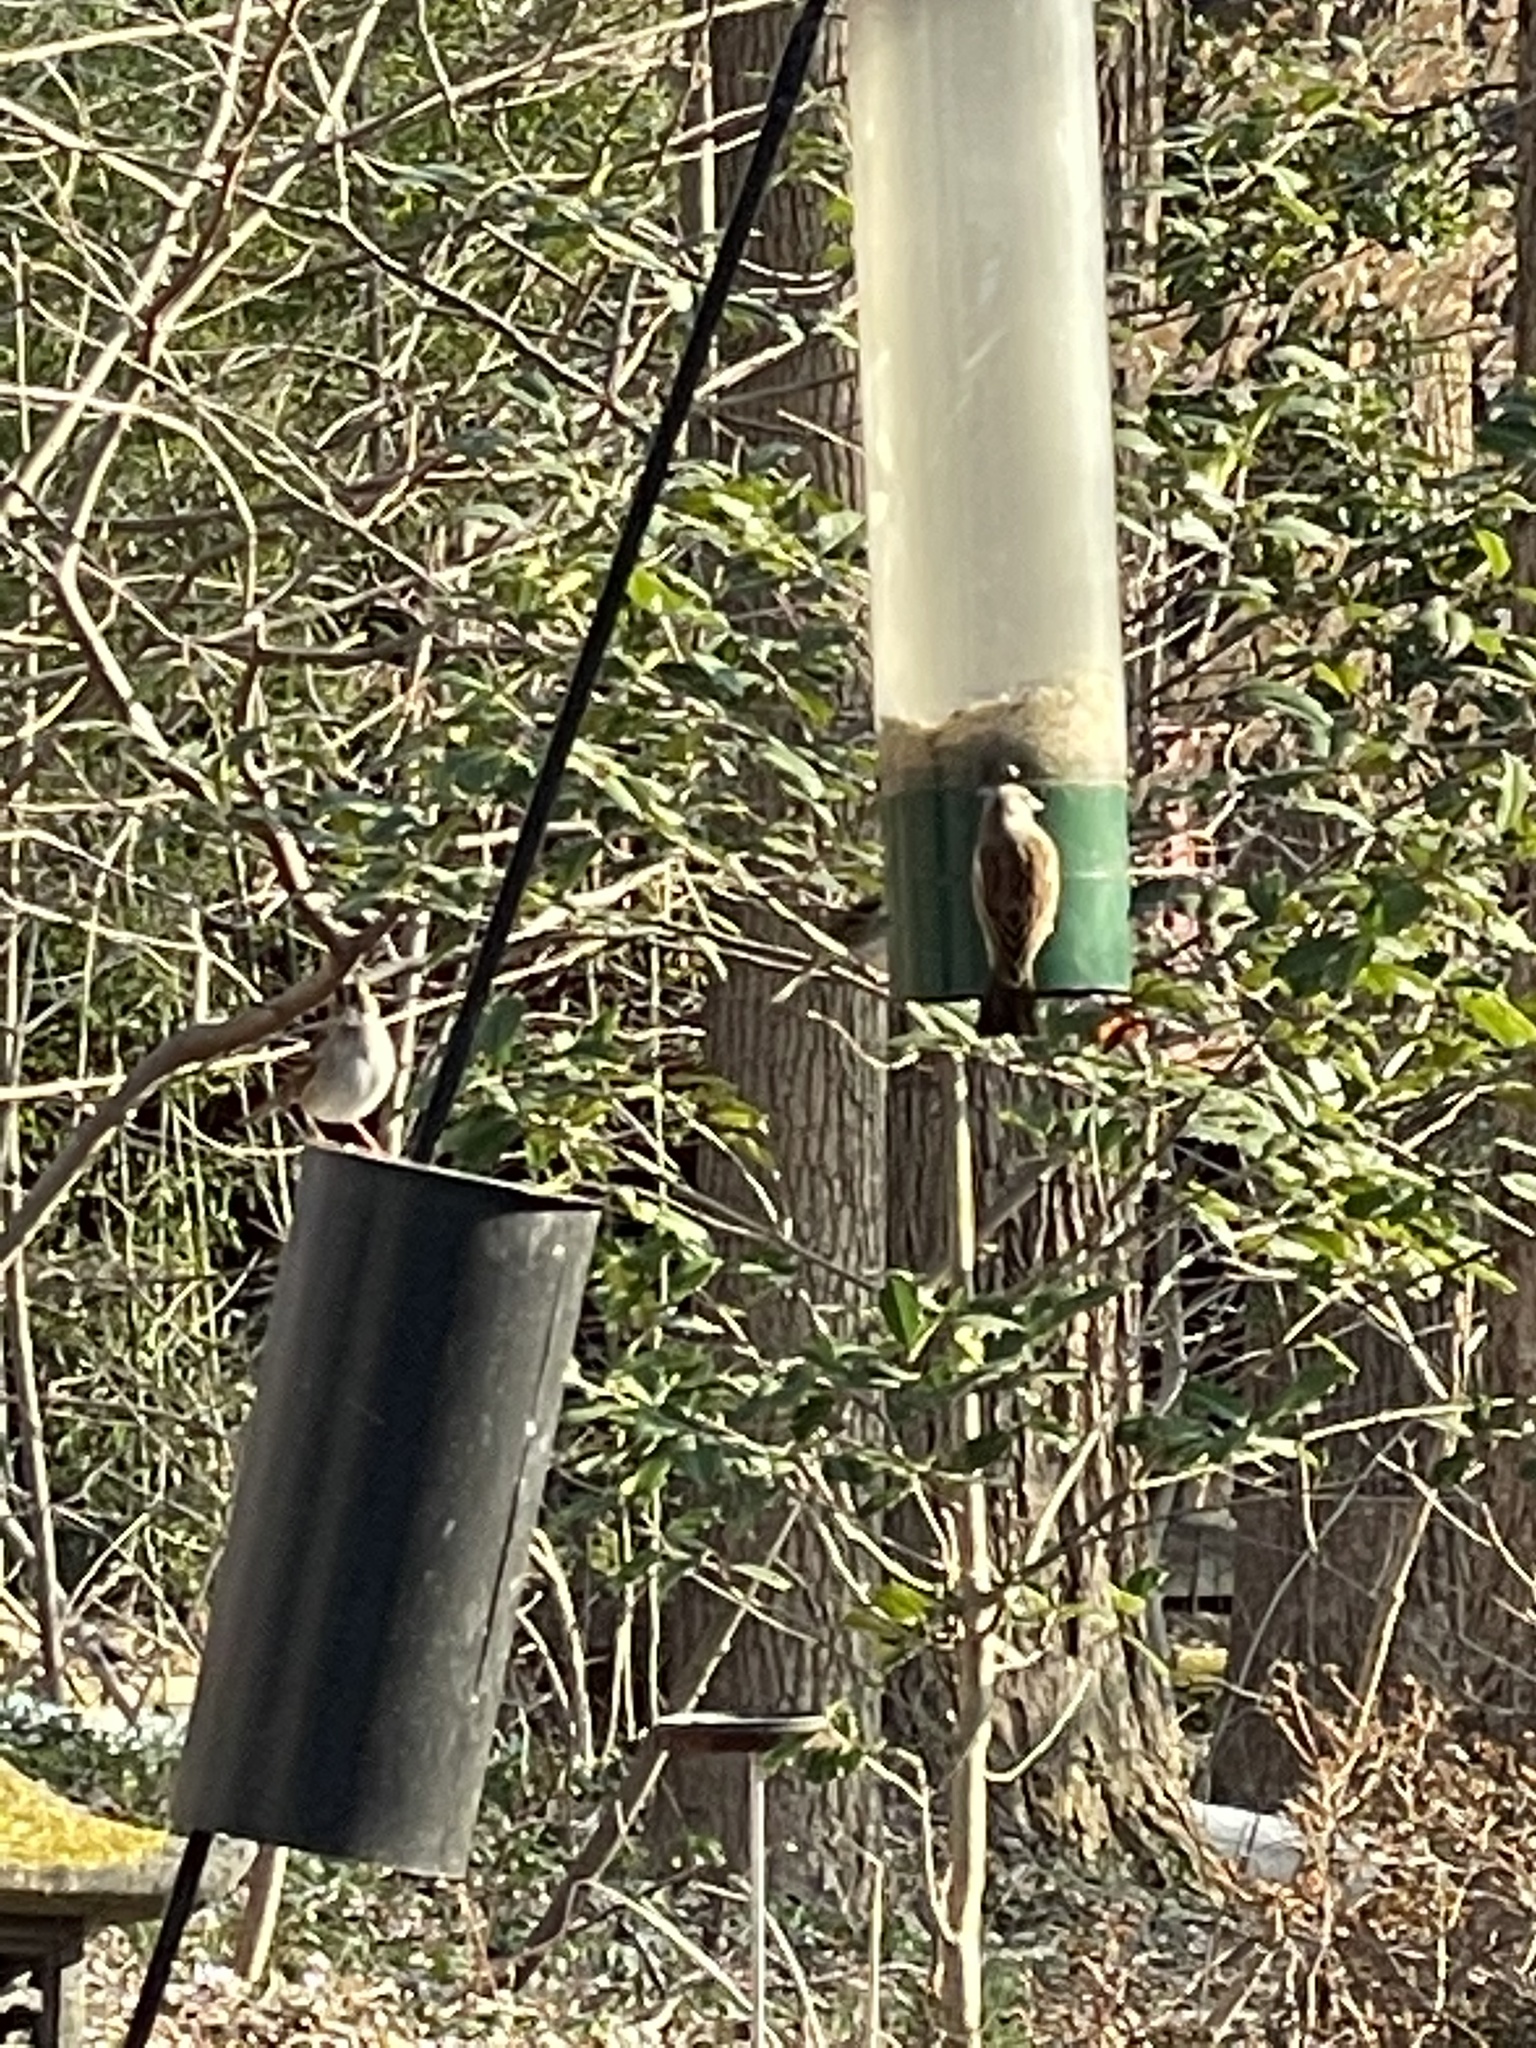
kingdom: Animalia
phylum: Chordata
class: Aves
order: Passeriformes
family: Passeridae
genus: Passer
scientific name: Passer domesticus
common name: House sparrow
